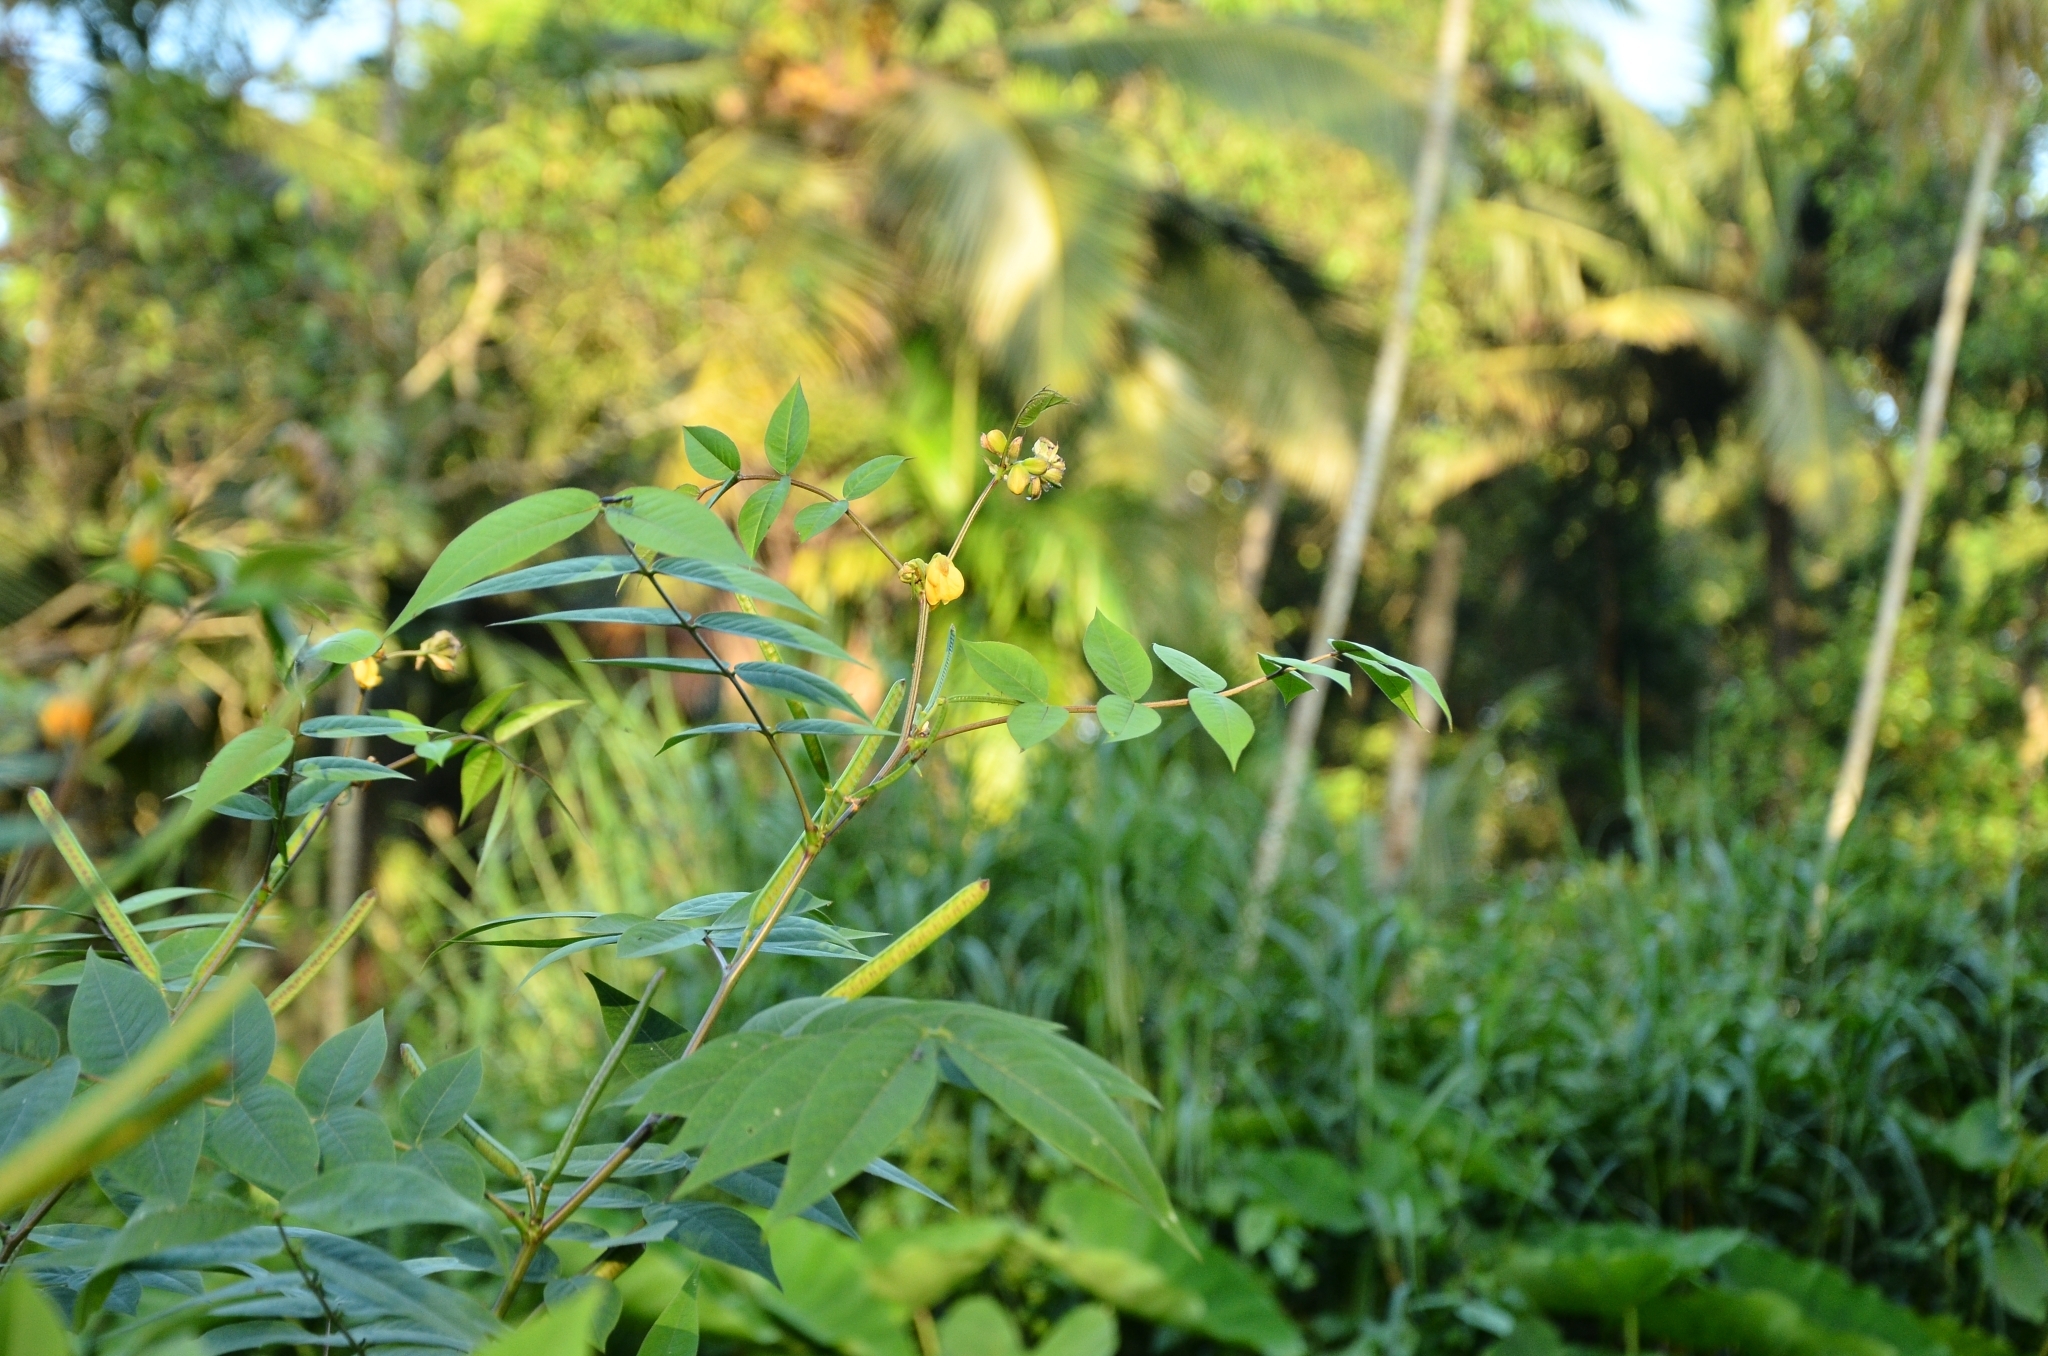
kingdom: Plantae
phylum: Tracheophyta
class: Magnoliopsida
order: Fabales
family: Fabaceae
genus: Senna
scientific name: Senna occidentalis
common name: Septicweed
